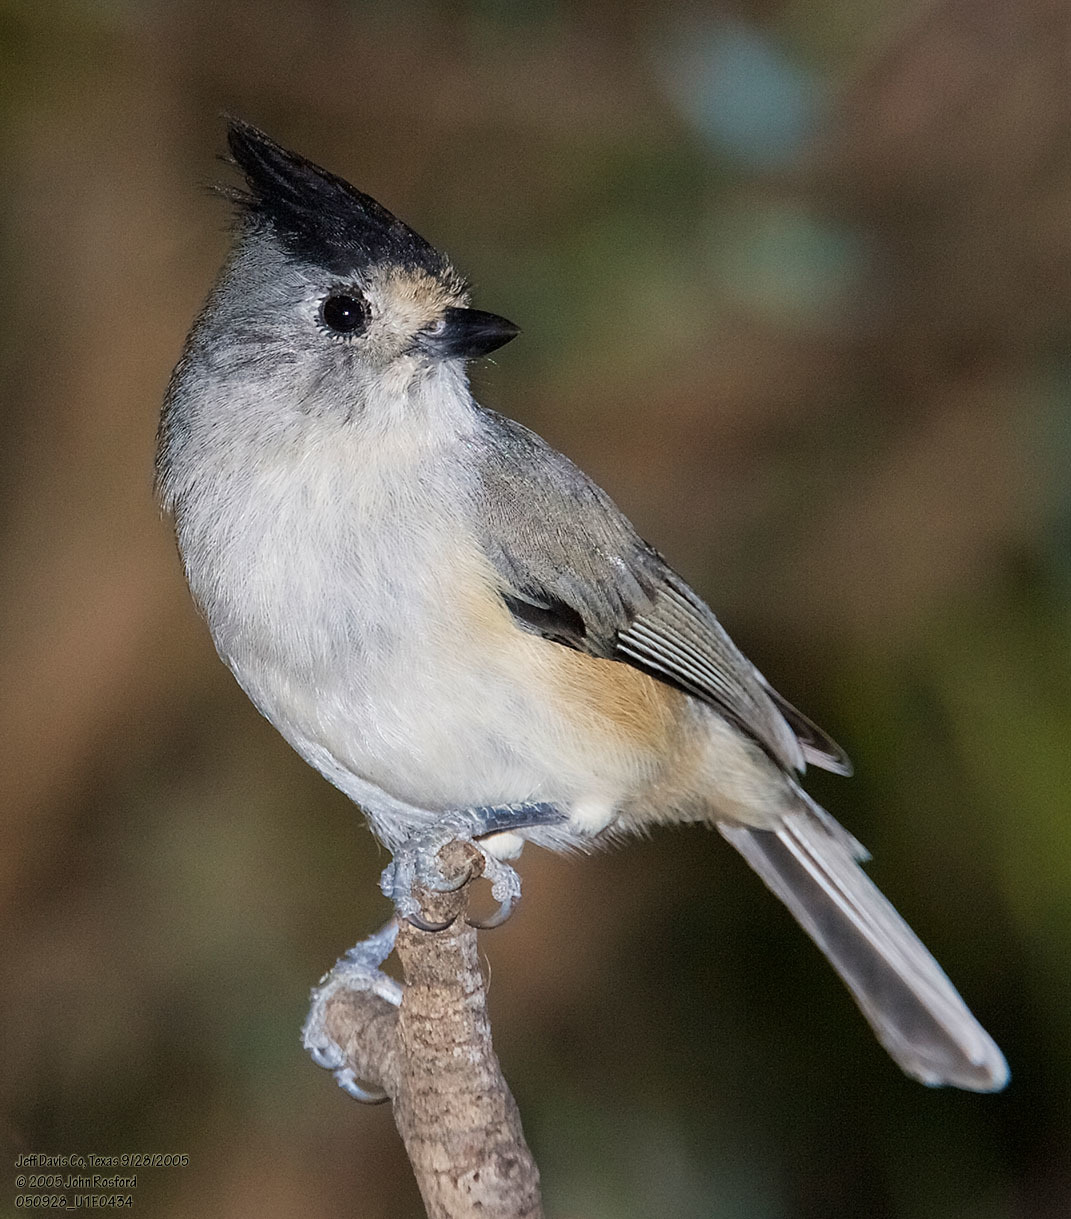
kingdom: Animalia
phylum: Chordata
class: Aves
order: Passeriformes
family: Paridae
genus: Baeolophus
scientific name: Baeolophus atricristatus
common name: Black-crested titmouse
